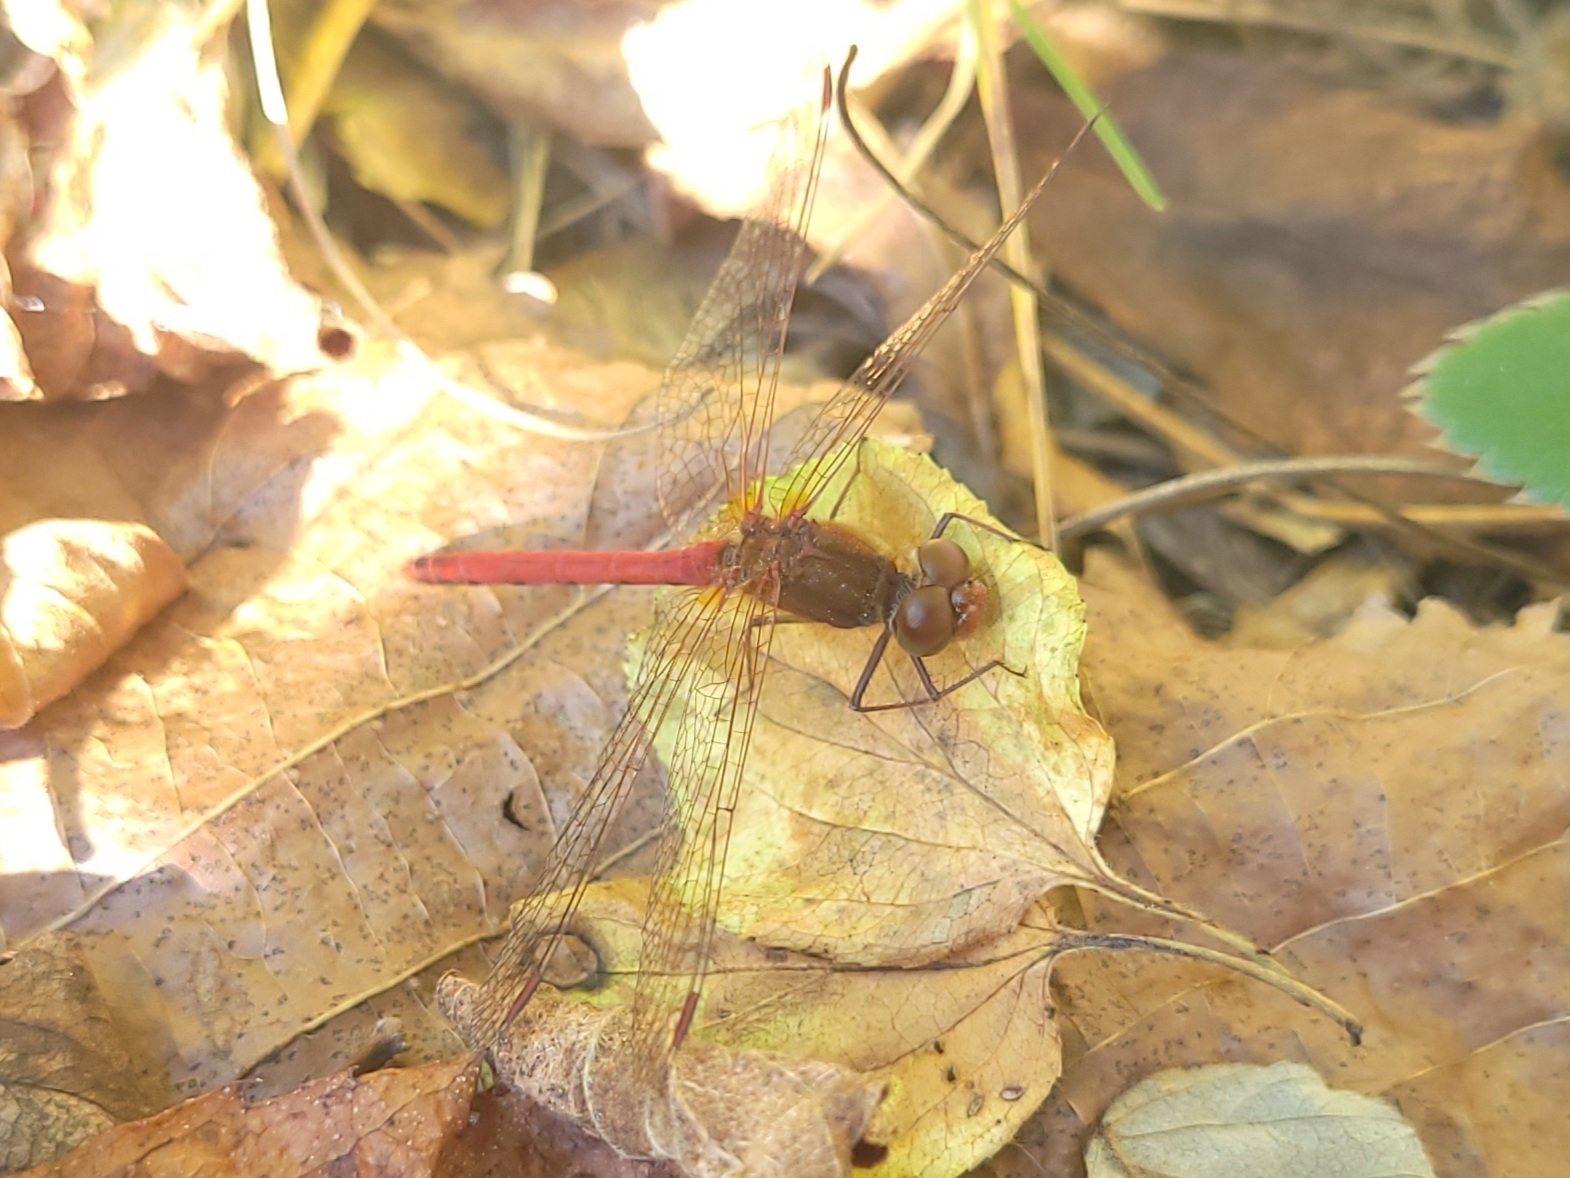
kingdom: Animalia
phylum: Arthropoda
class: Insecta
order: Odonata
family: Libellulidae
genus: Sympetrum
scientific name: Sympetrum vicinum
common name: Autumn meadowhawk
